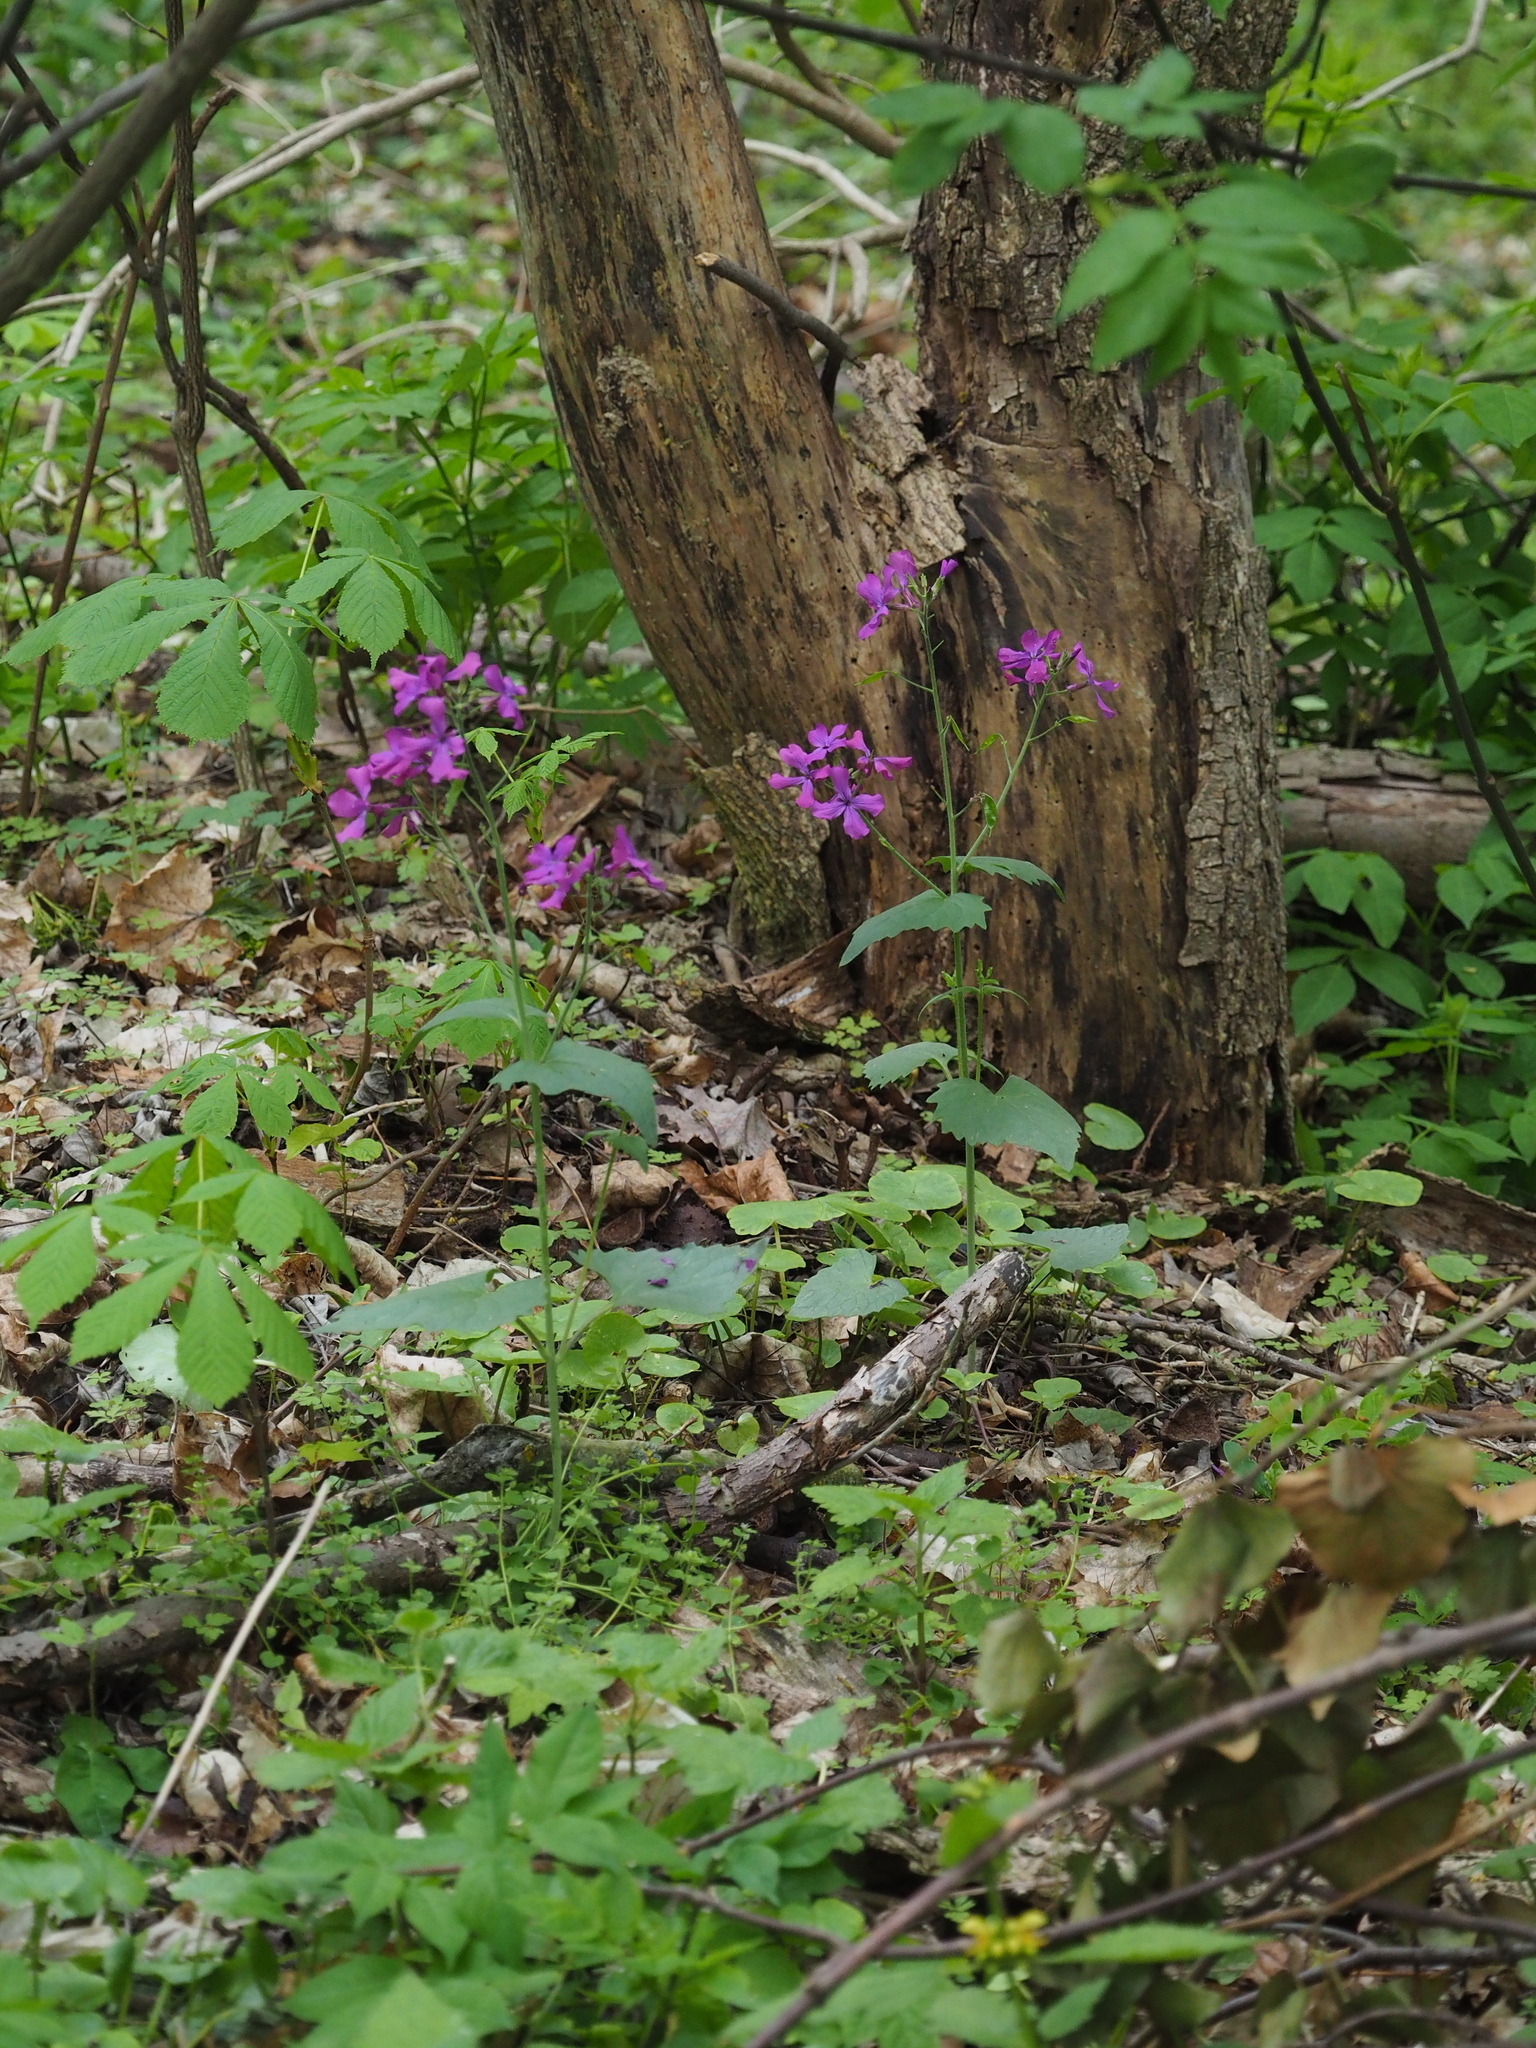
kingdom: Plantae
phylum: Tracheophyta
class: Magnoliopsida
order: Brassicales
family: Brassicaceae
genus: Lunaria
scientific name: Lunaria annua
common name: Honesty
